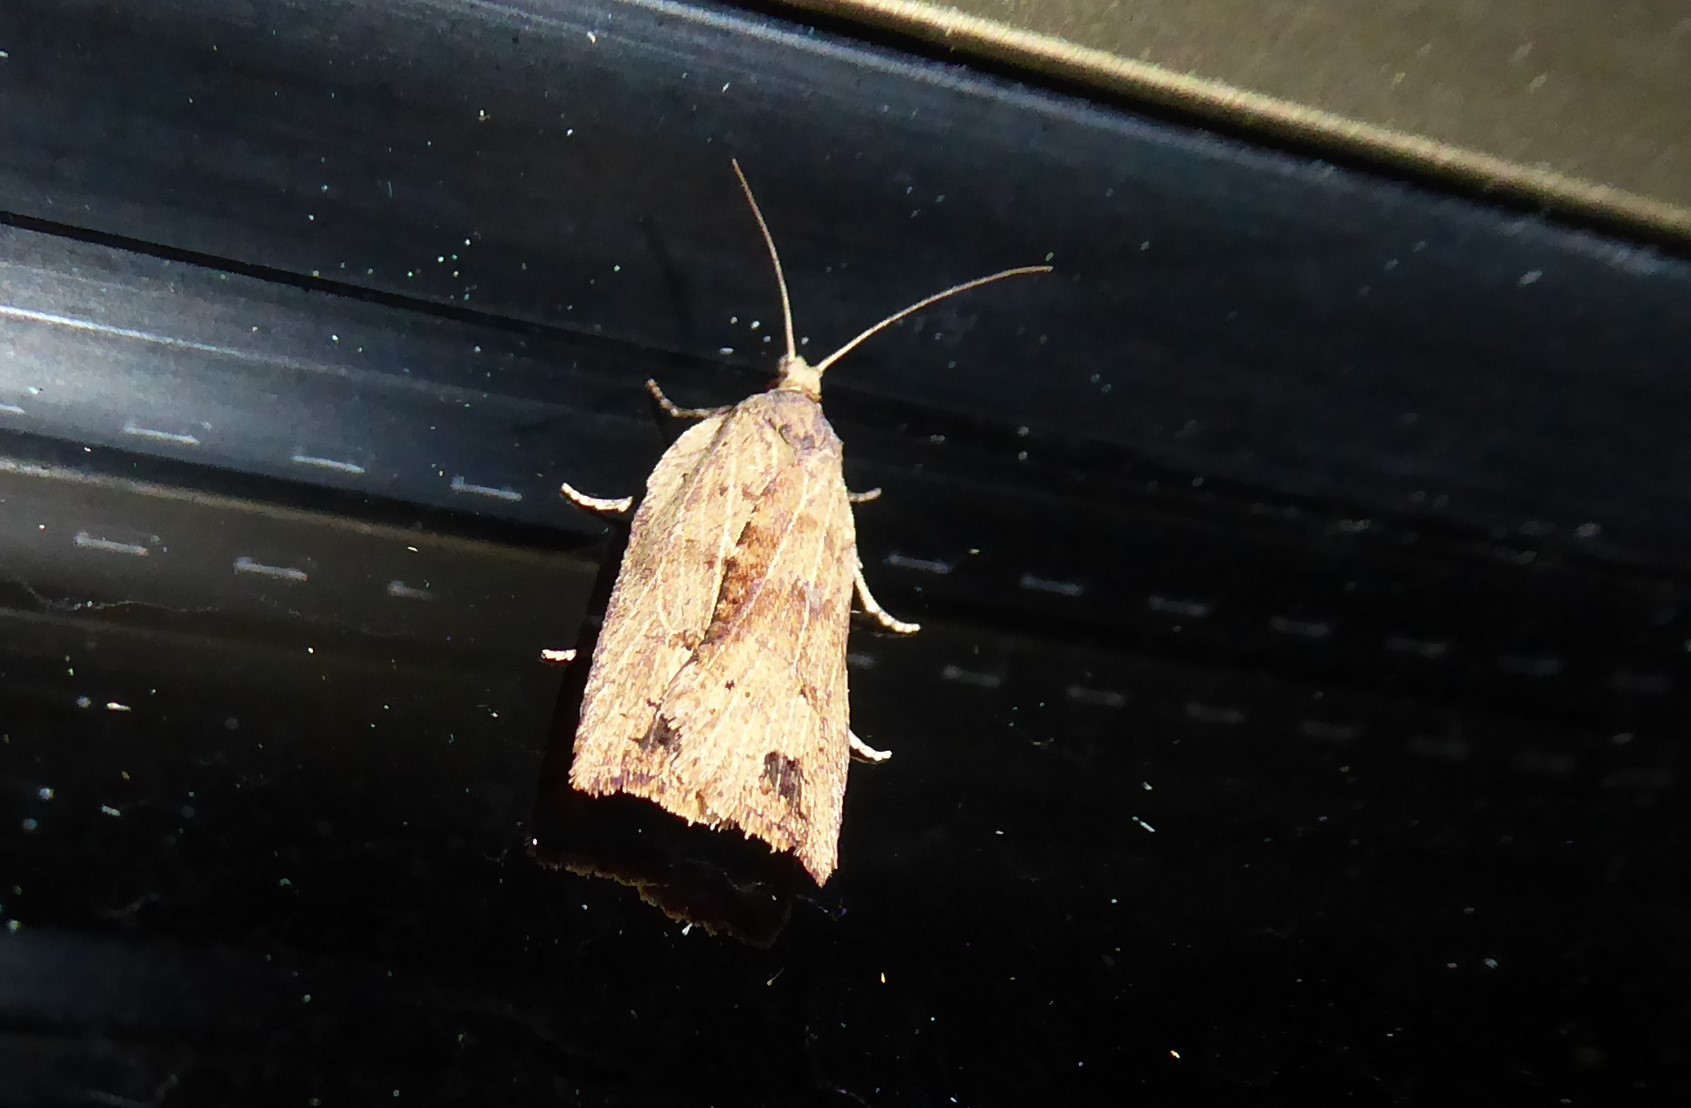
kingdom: Animalia
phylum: Arthropoda
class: Insecta
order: Lepidoptera
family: Tortricidae
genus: Planotortrix
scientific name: Planotortrix notophaea
